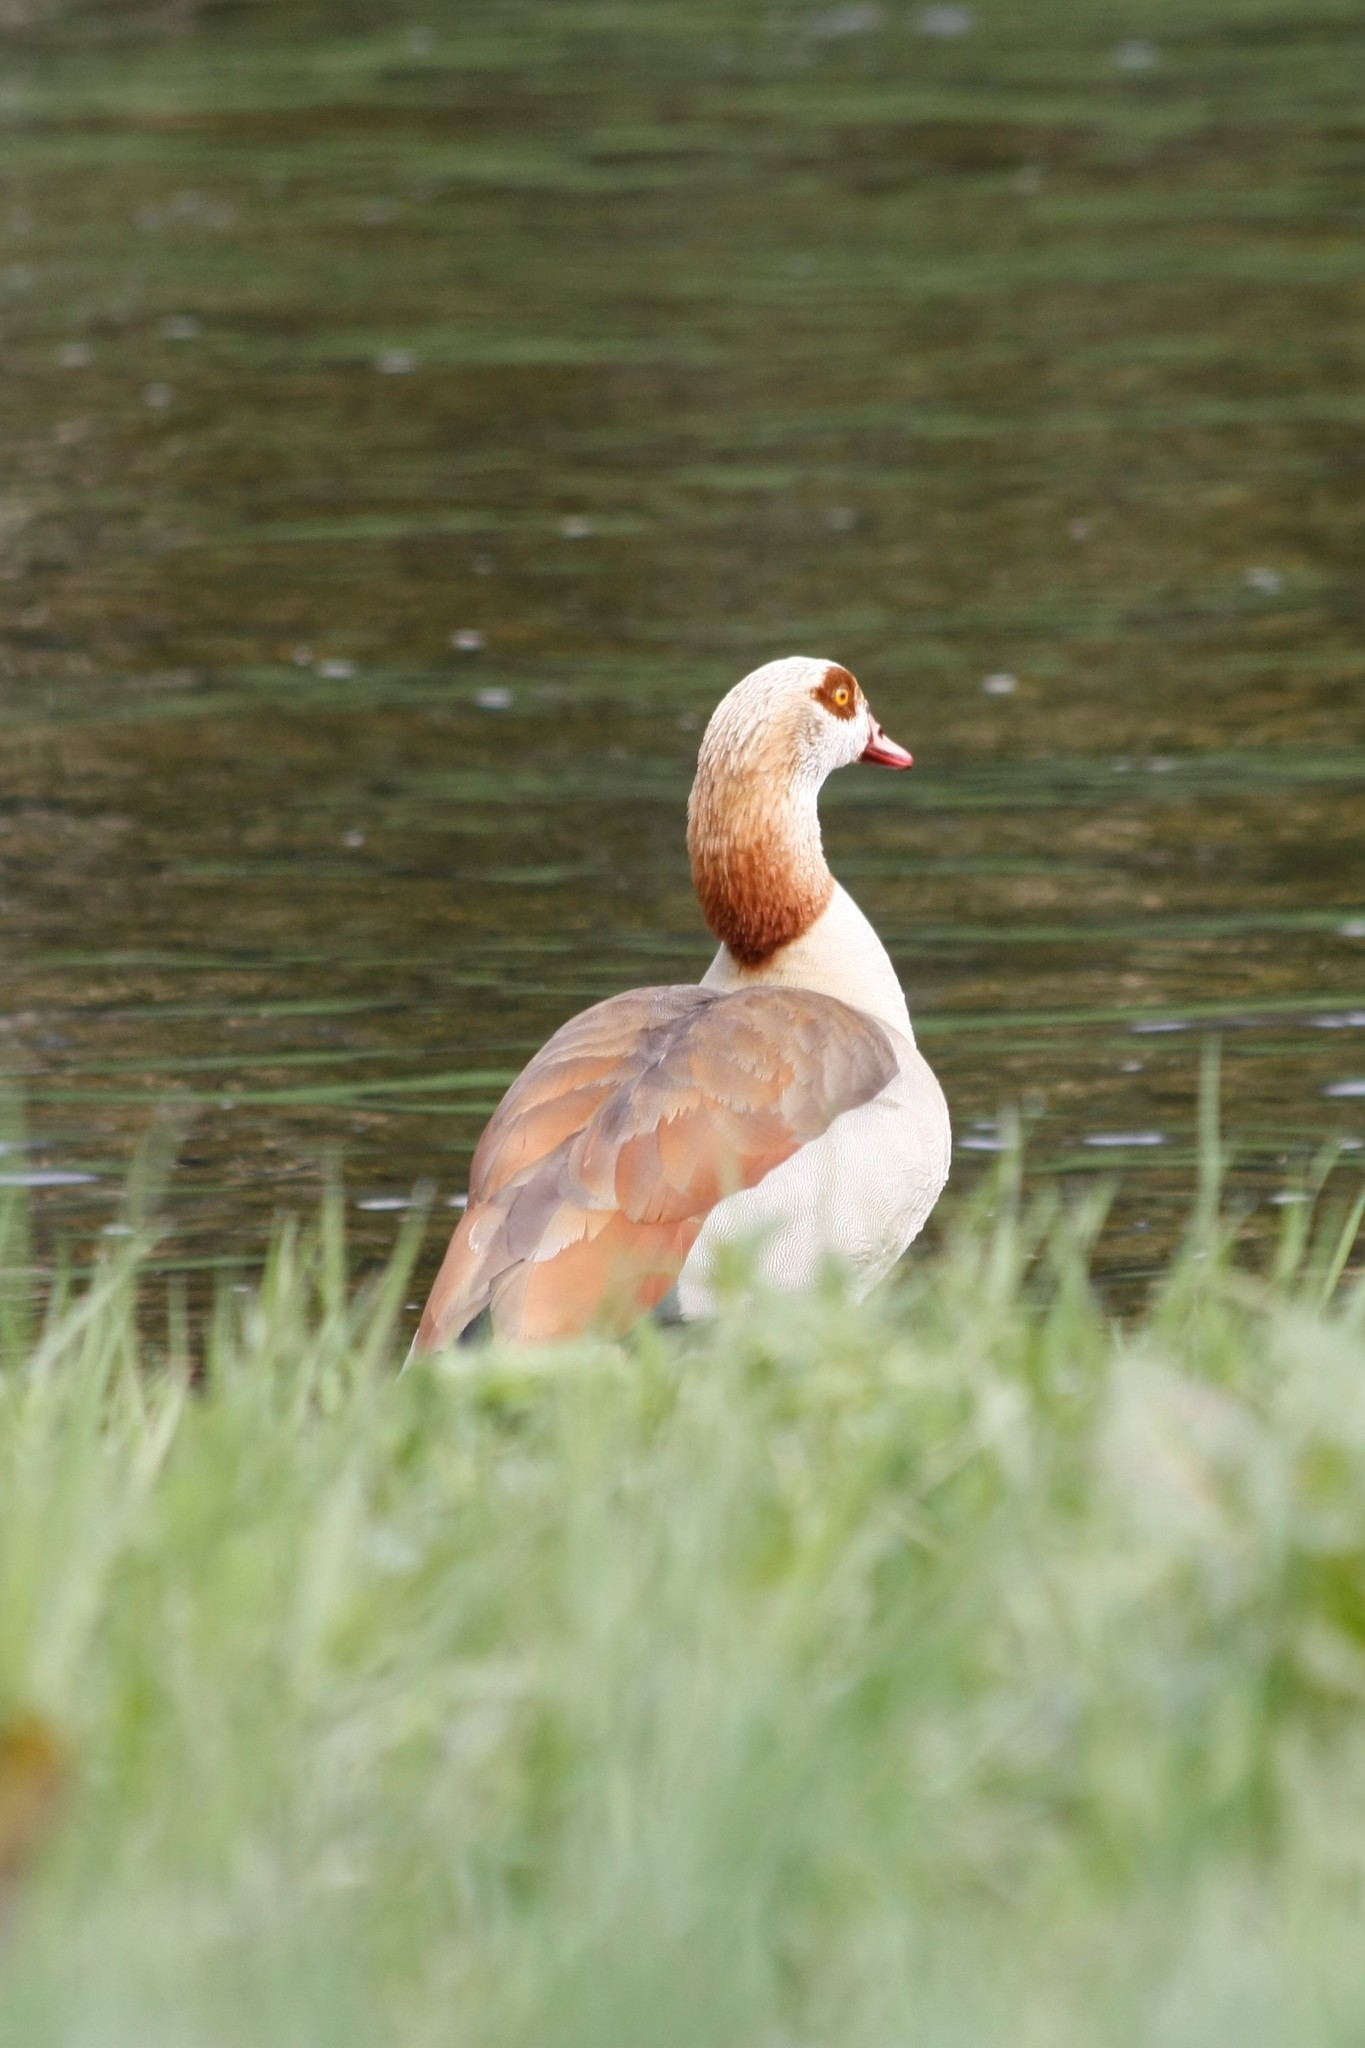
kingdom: Animalia
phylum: Chordata
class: Aves
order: Anseriformes
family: Anatidae
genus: Alopochen
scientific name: Alopochen aegyptiaca
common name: Egyptian goose
